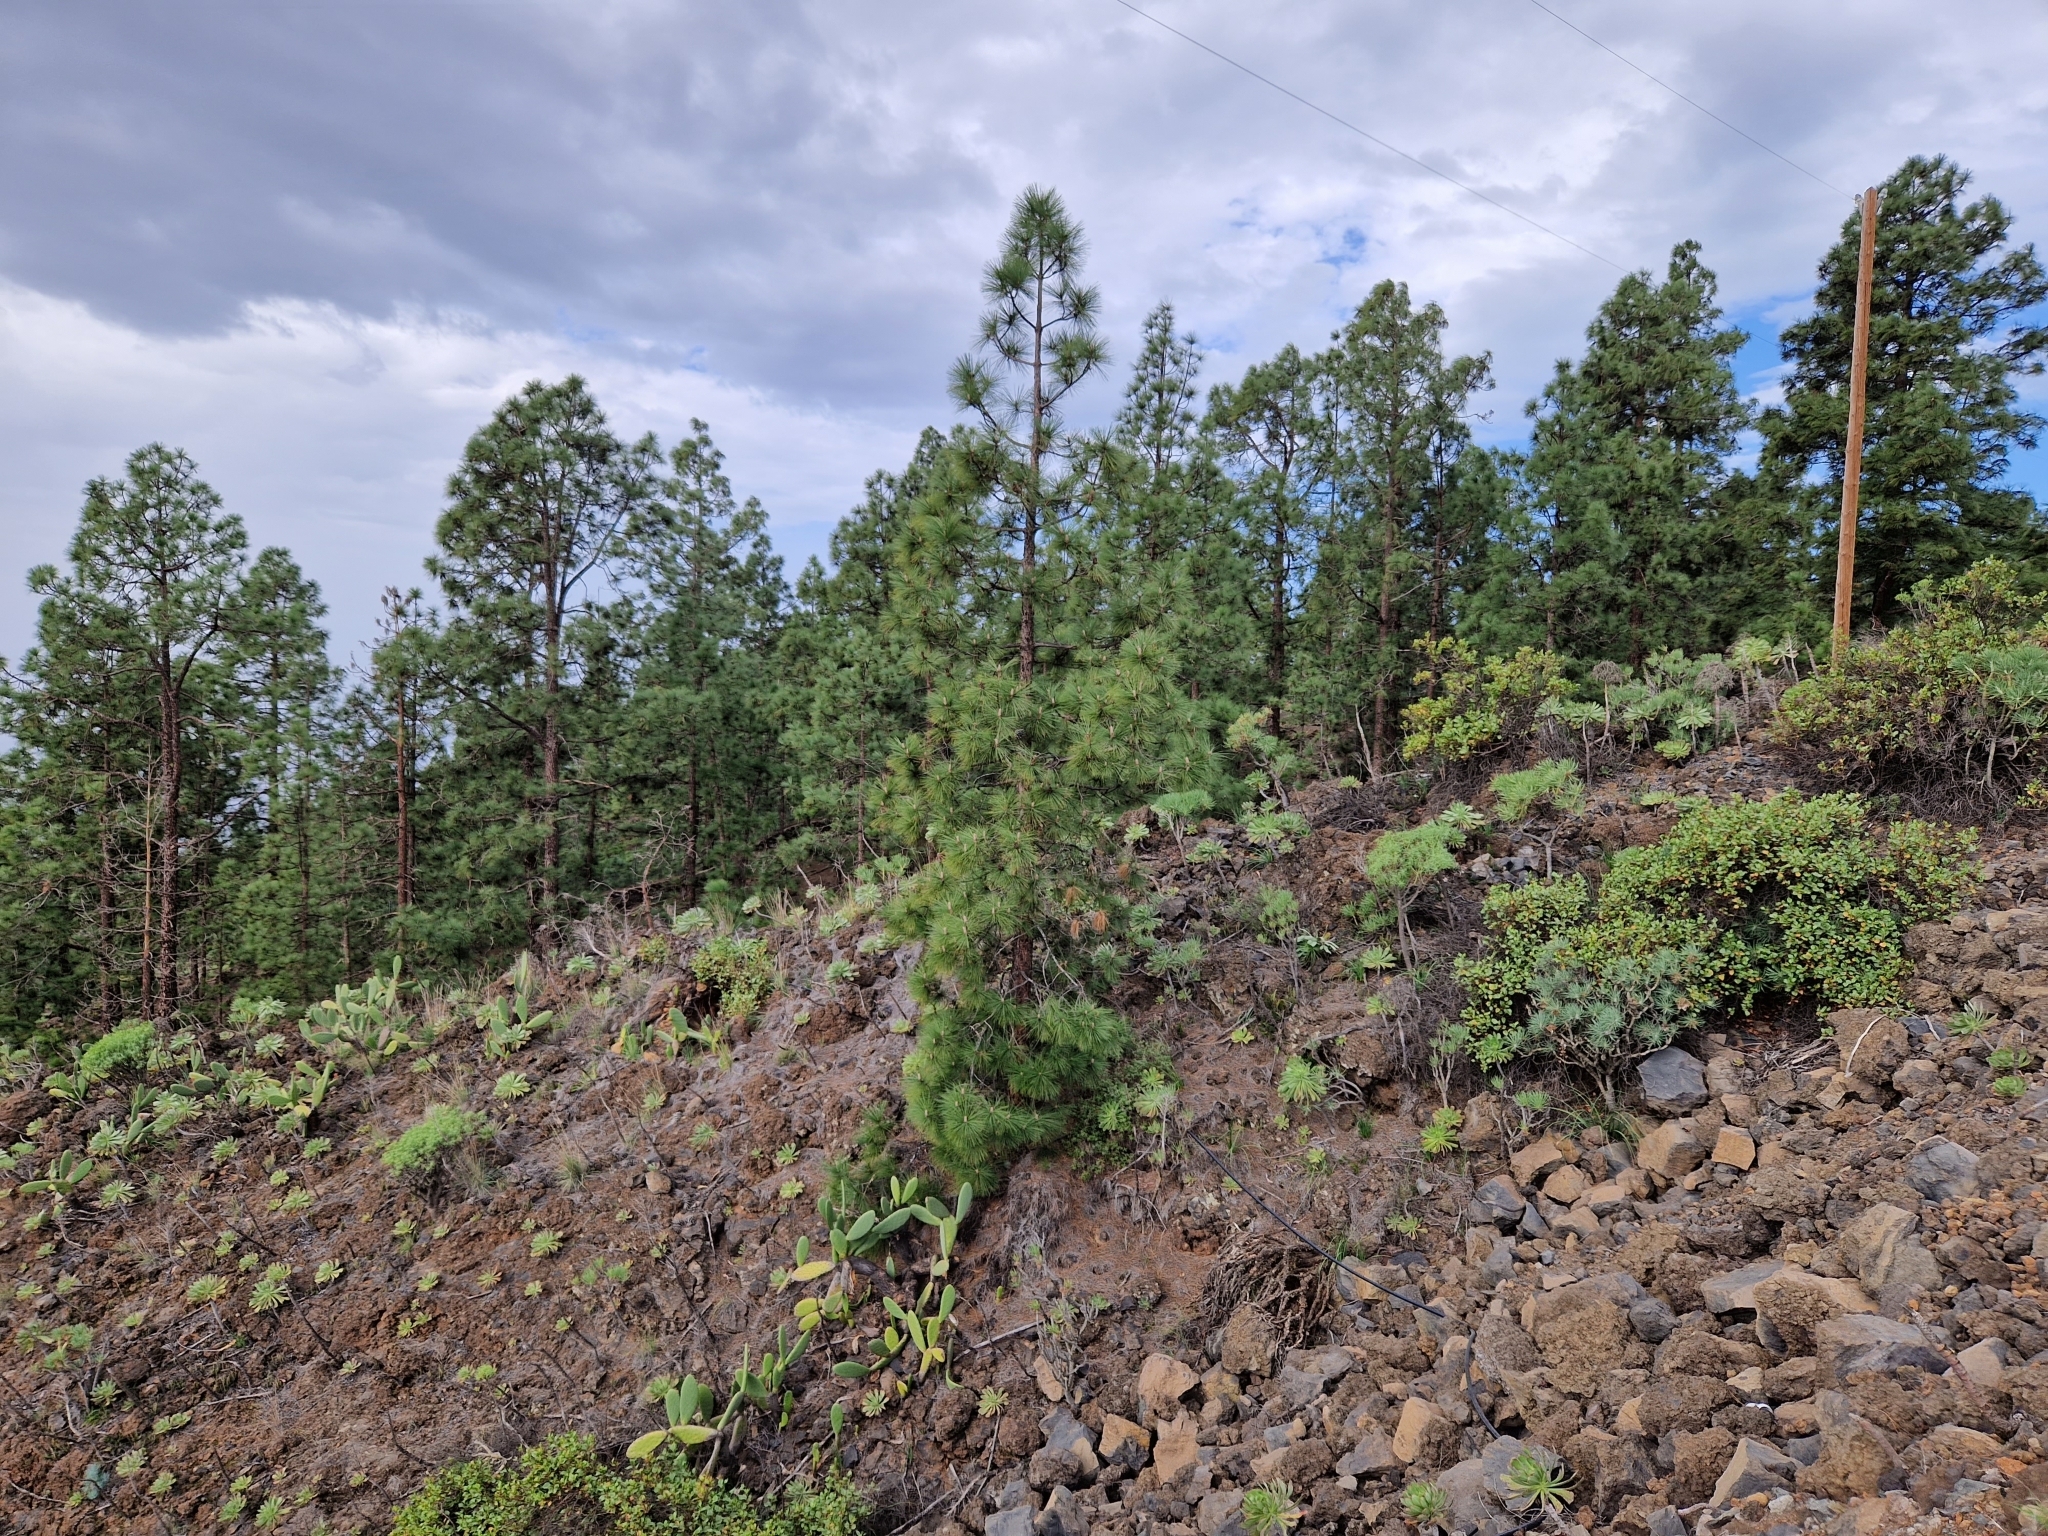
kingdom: Plantae
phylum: Tracheophyta
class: Pinopsida
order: Pinales
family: Pinaceae
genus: Pinus
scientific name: Pinus canariensis
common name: Canary islands pine
